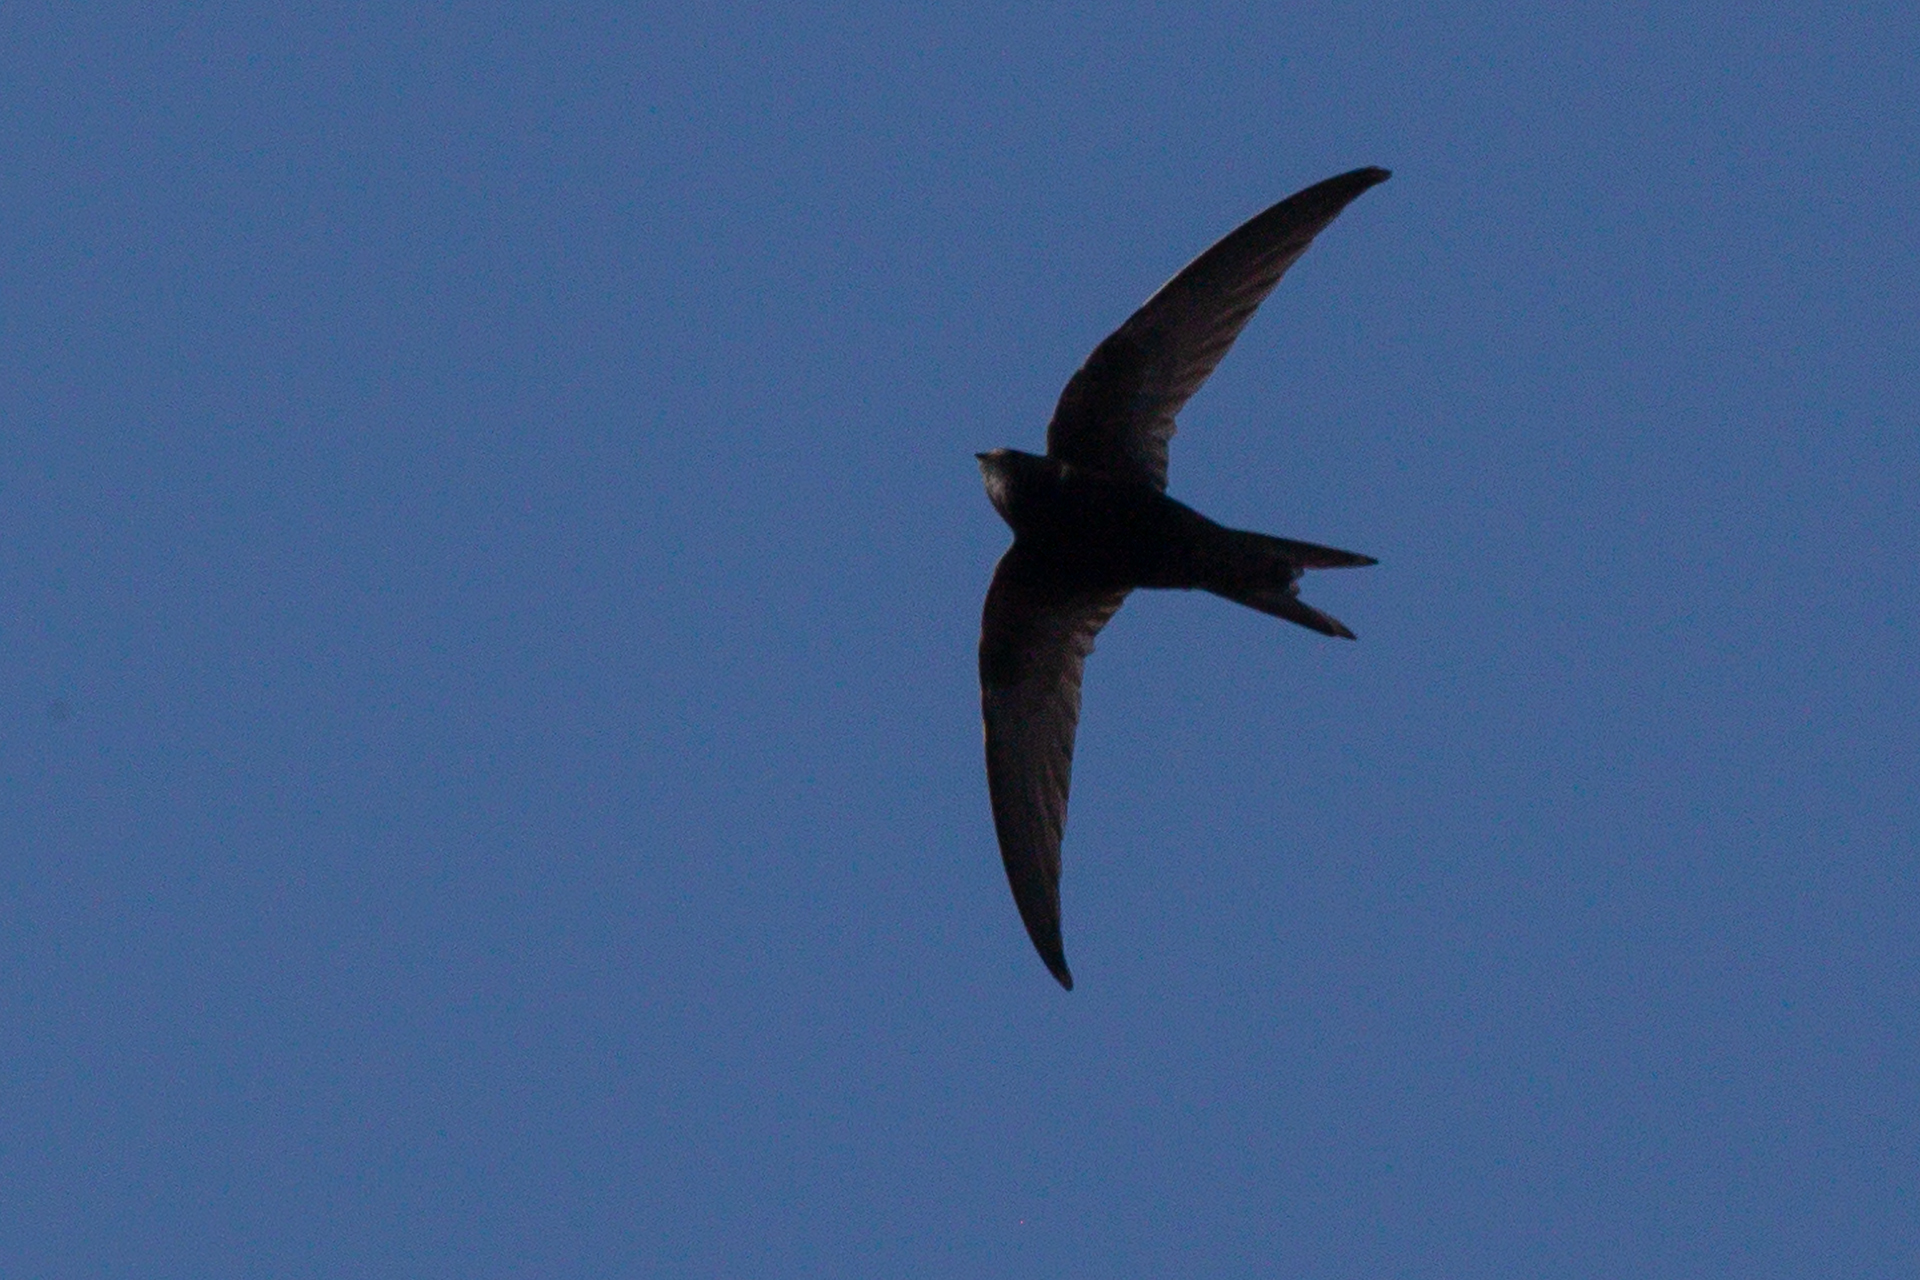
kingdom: Animalia
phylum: Chordata
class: Aves
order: Apodiformes
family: Apodidae
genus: Apus
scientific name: Apus apus
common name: Common swift
